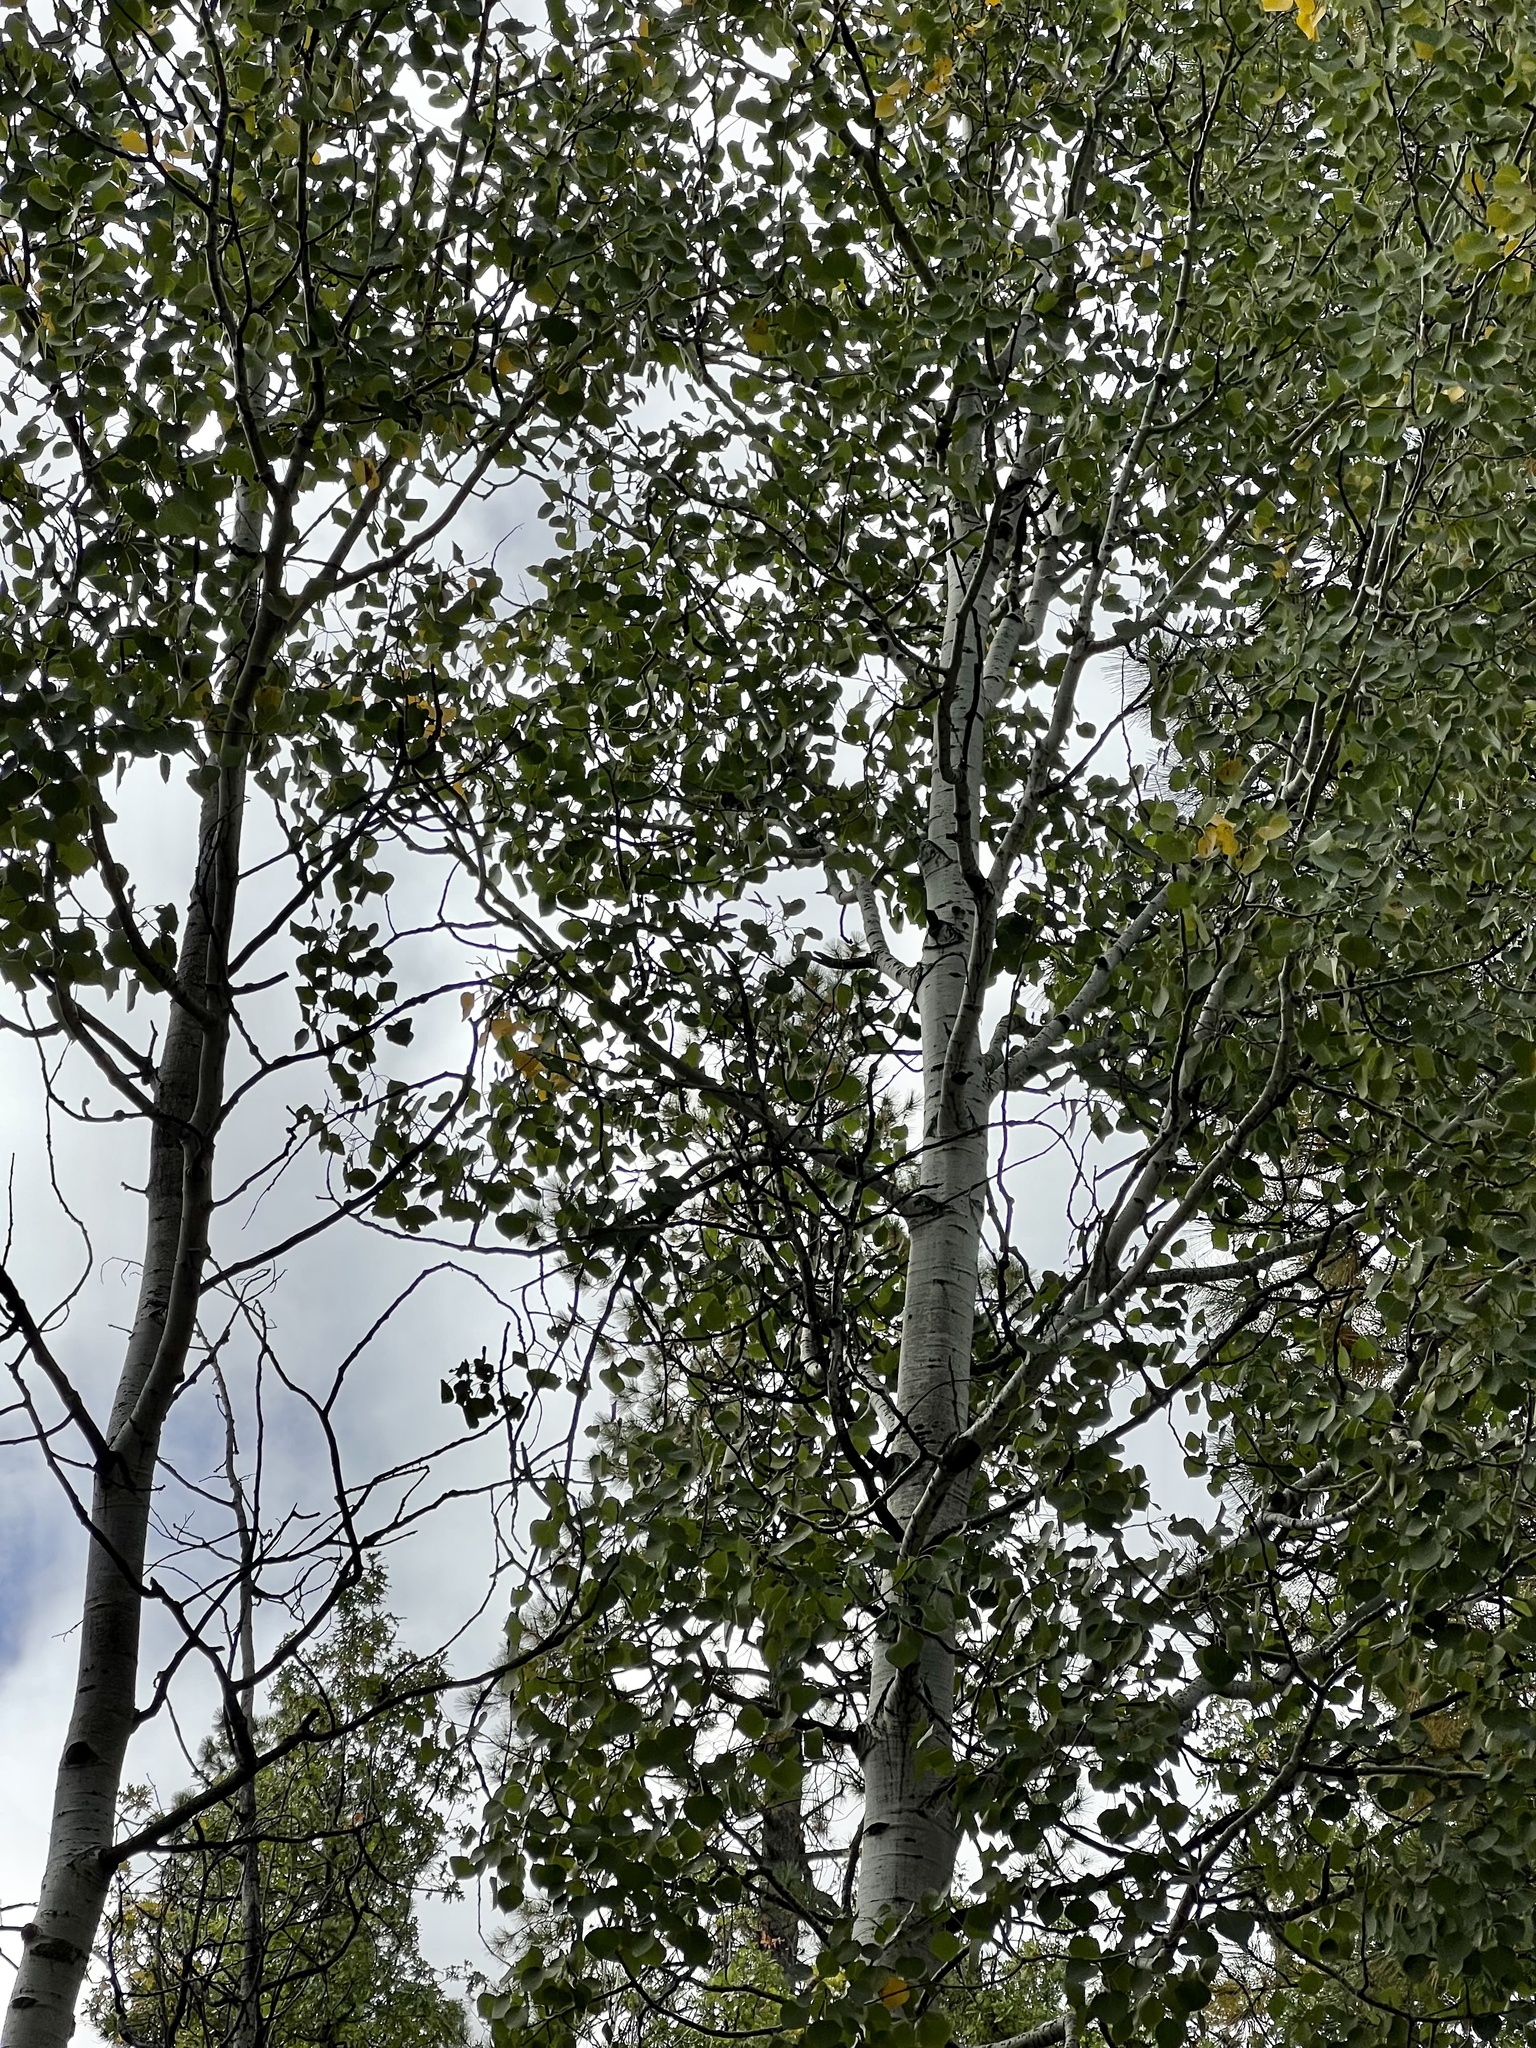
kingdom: Plantae
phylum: Tracheophyta
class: Magnoliopsida
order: Malpighiales
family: Salicaceae
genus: Populus
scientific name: Populus tremuloides
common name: Quaking aspen
